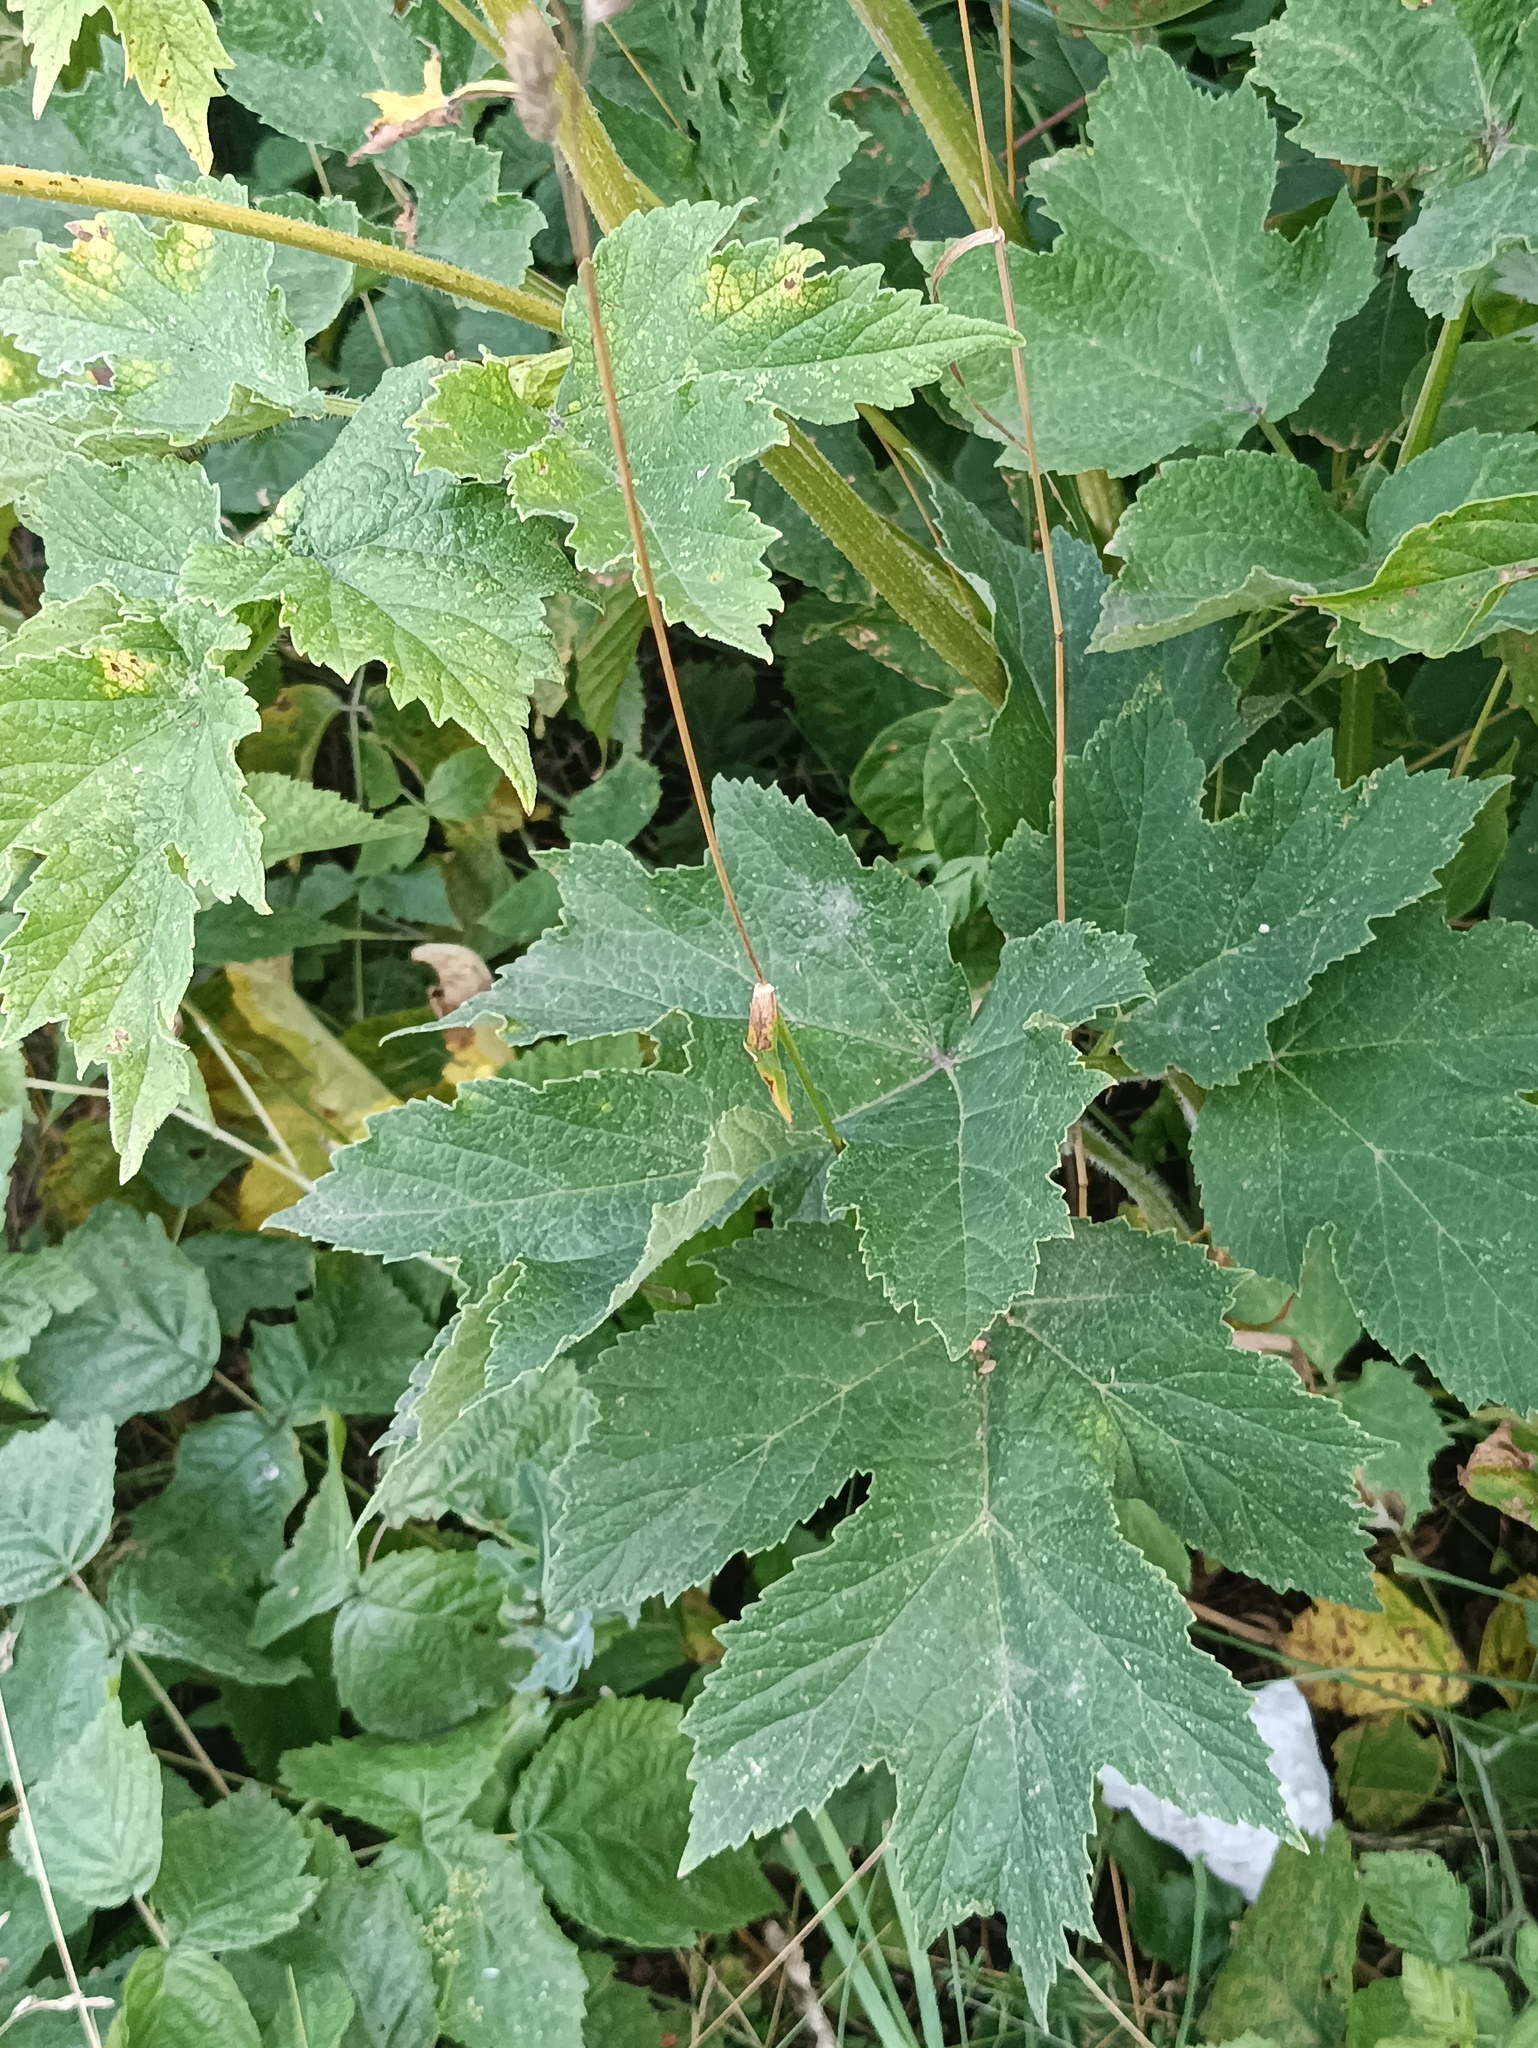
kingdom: Plantae
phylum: Tracheophyta
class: Magnoliopsida
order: Apiales
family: Apiaceae
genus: Heracleum
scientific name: Heracleum sphondylium
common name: Hogweed
